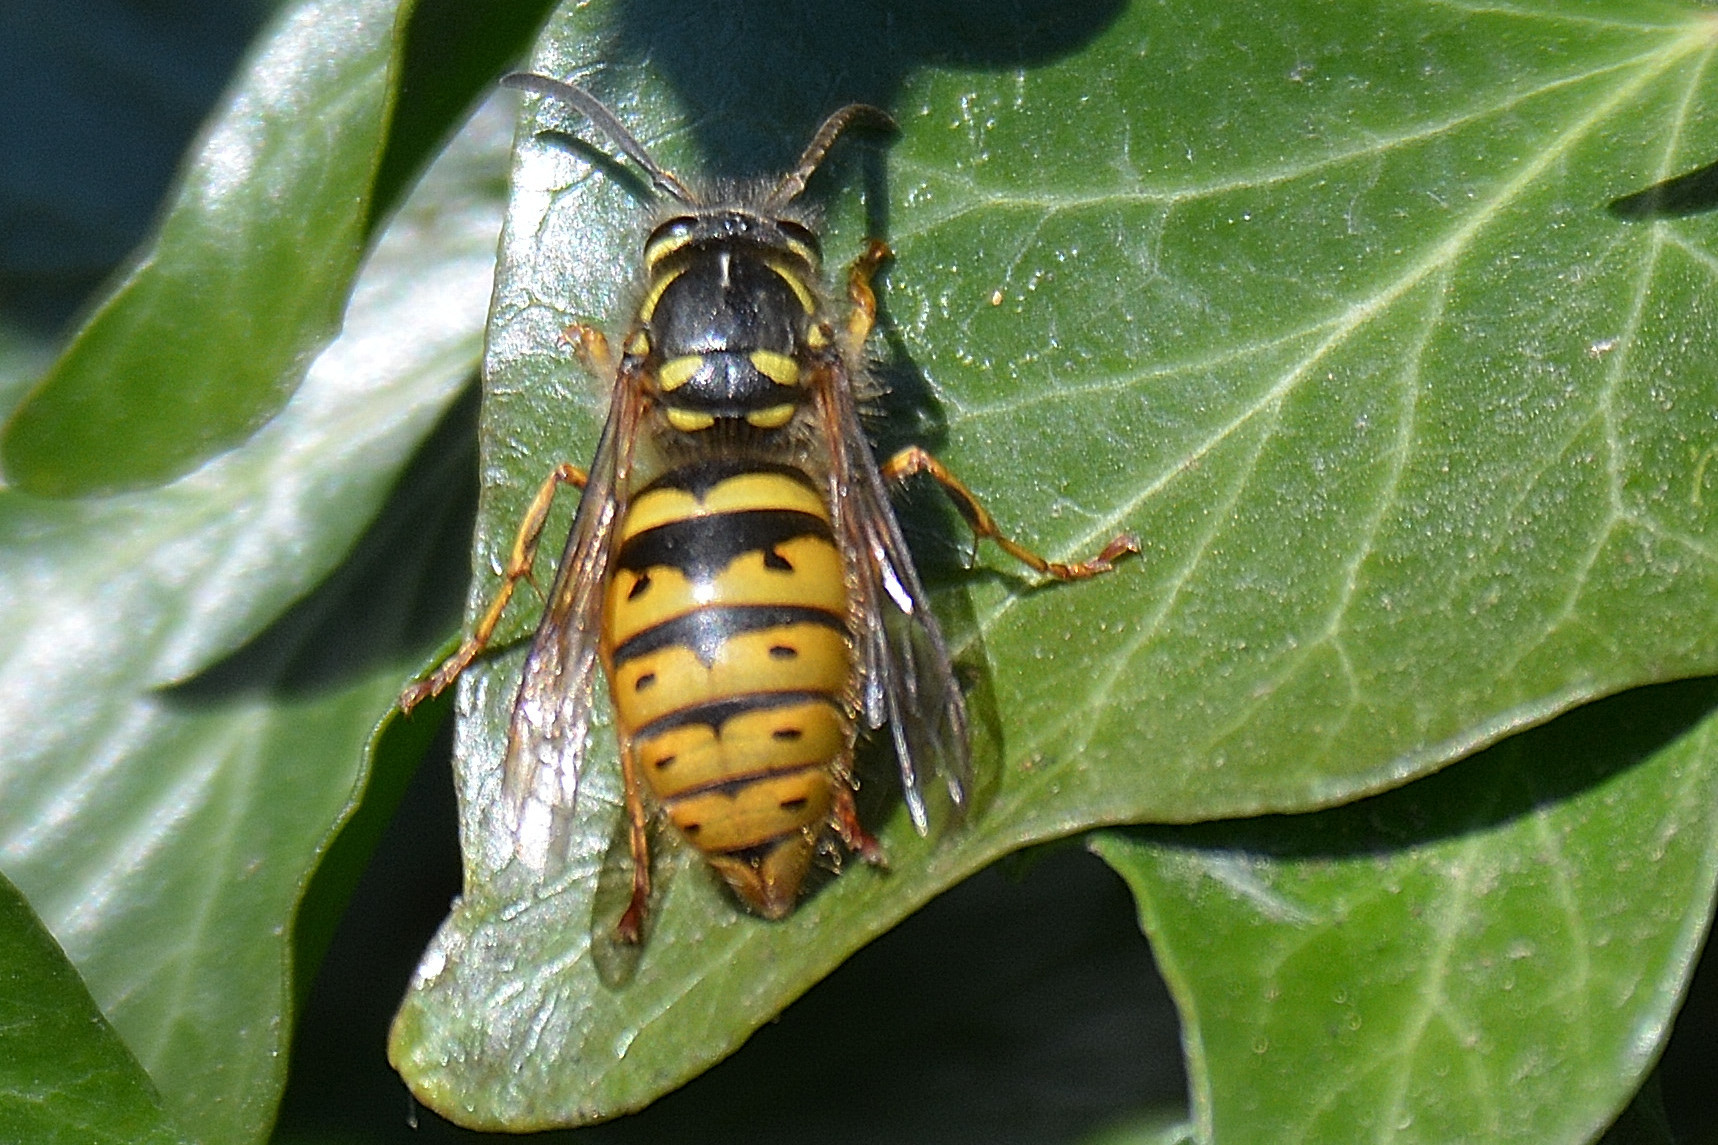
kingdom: Animalia
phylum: Arthropoda
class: Insecta
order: Hymenoptera
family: Vespidae
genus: Vespula
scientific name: Vespula vulgaris
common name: Common wasp
